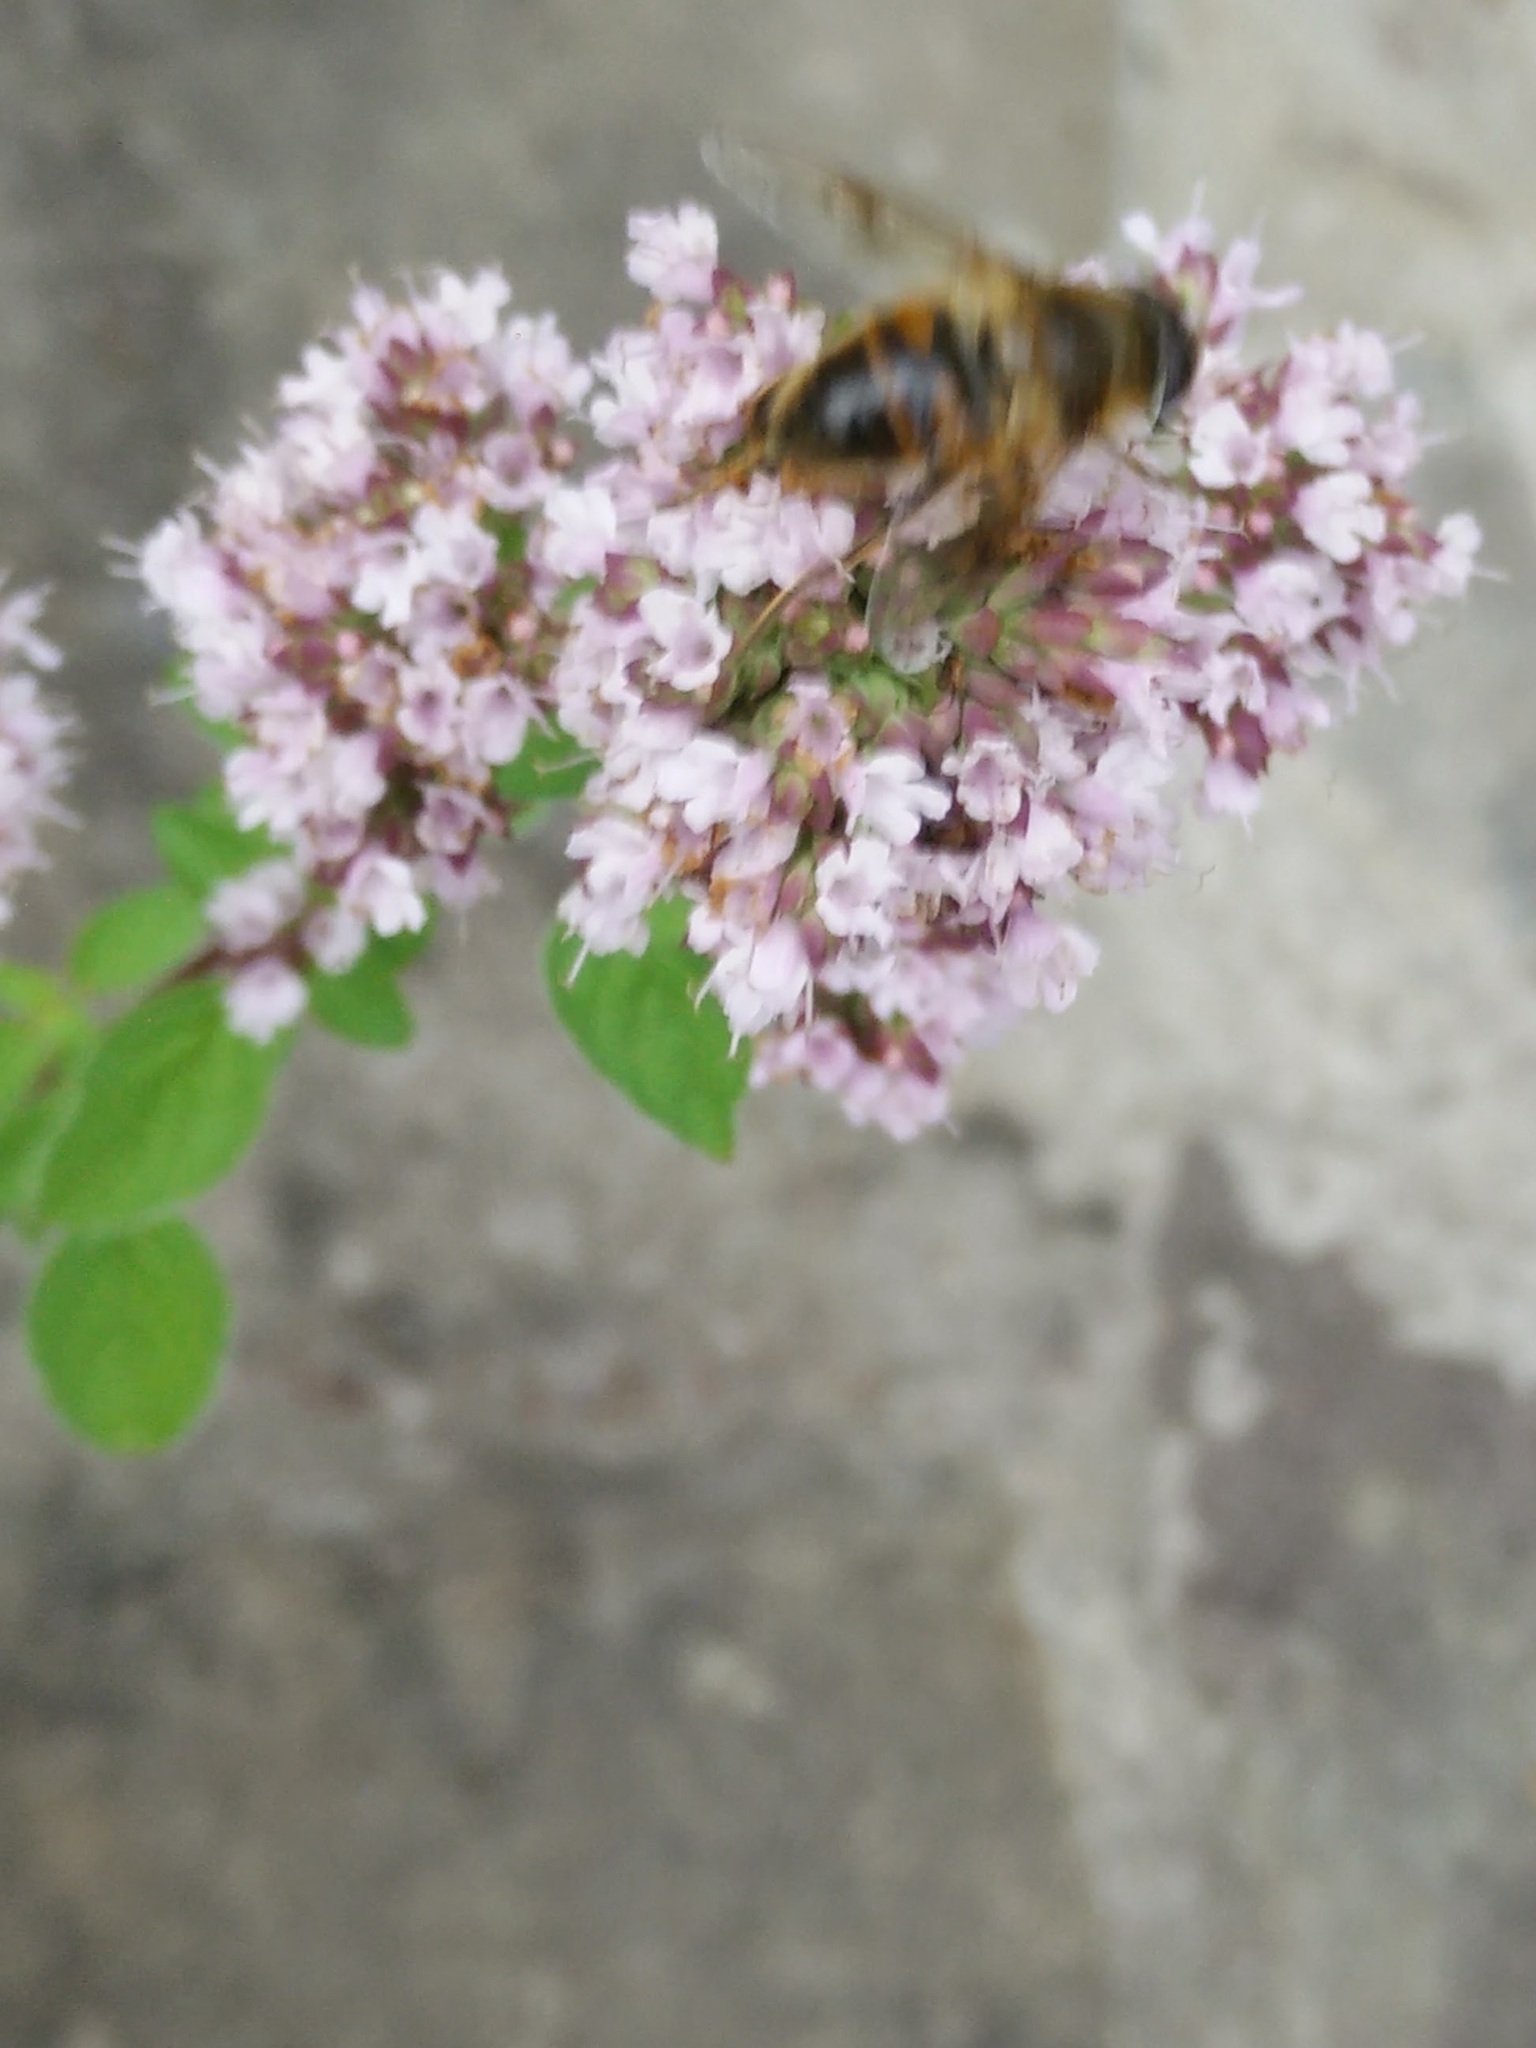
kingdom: Animalia
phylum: Arthropoda
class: Insecta
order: Diptera
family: Syrphidae
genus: Eristalis
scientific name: Eristalis tenax
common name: Drone fly
